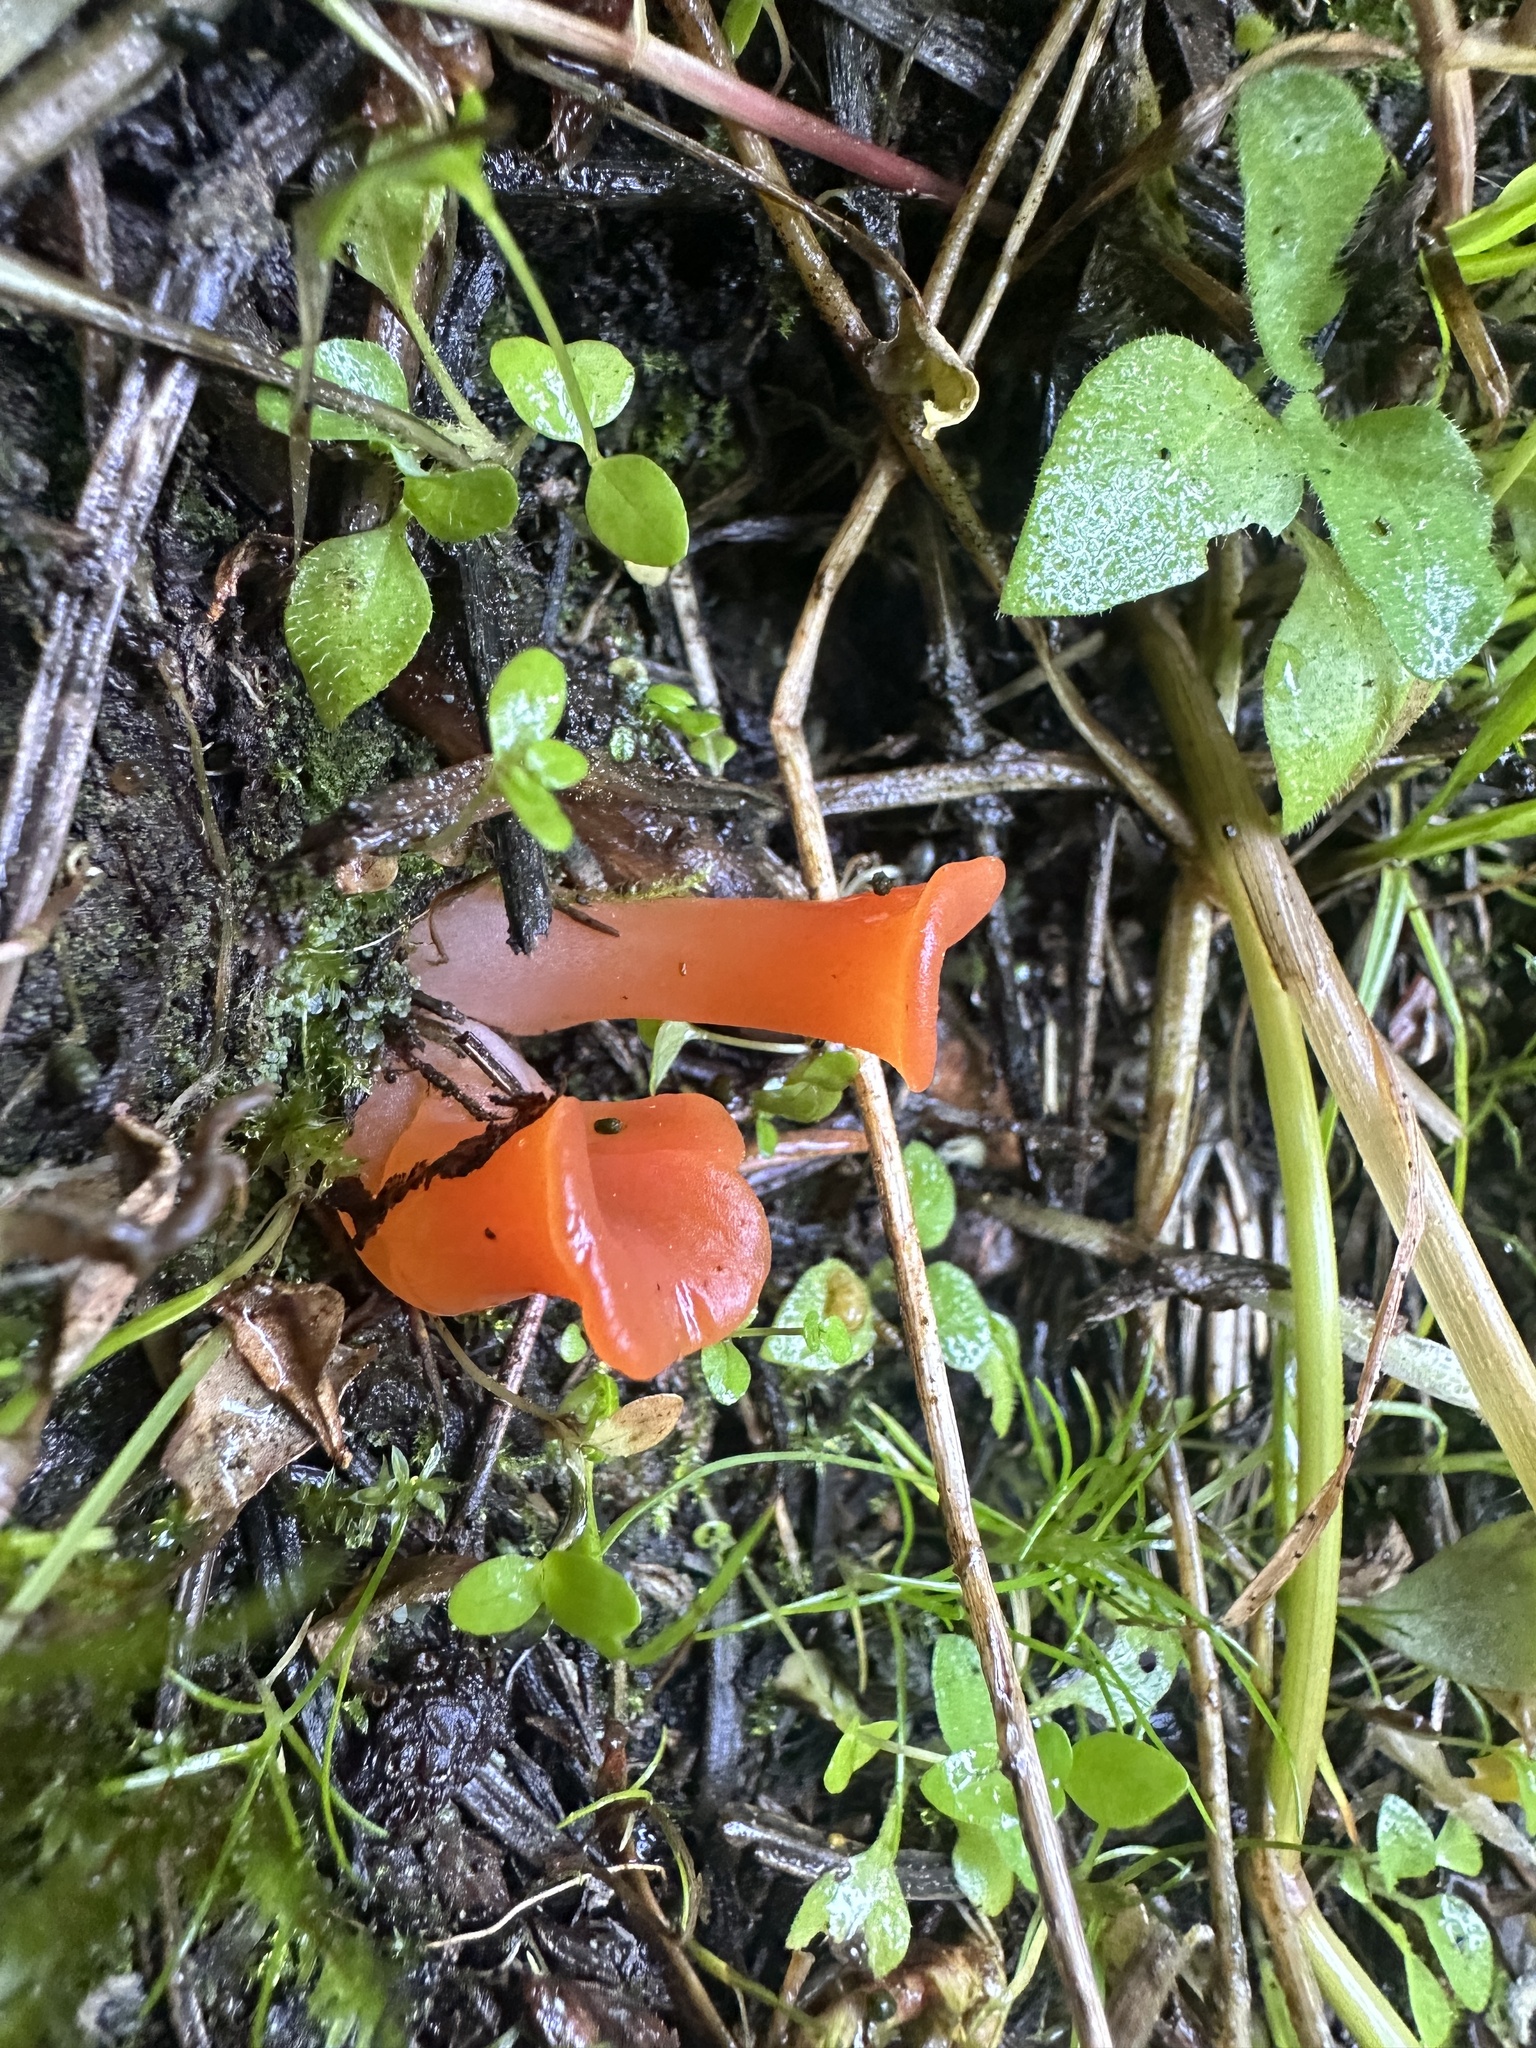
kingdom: Fungi
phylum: Basidiomycota
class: Agaricomycetes
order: Auriculariales
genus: Guepinia
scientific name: Guepinia helvelloides
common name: Salmon salad
